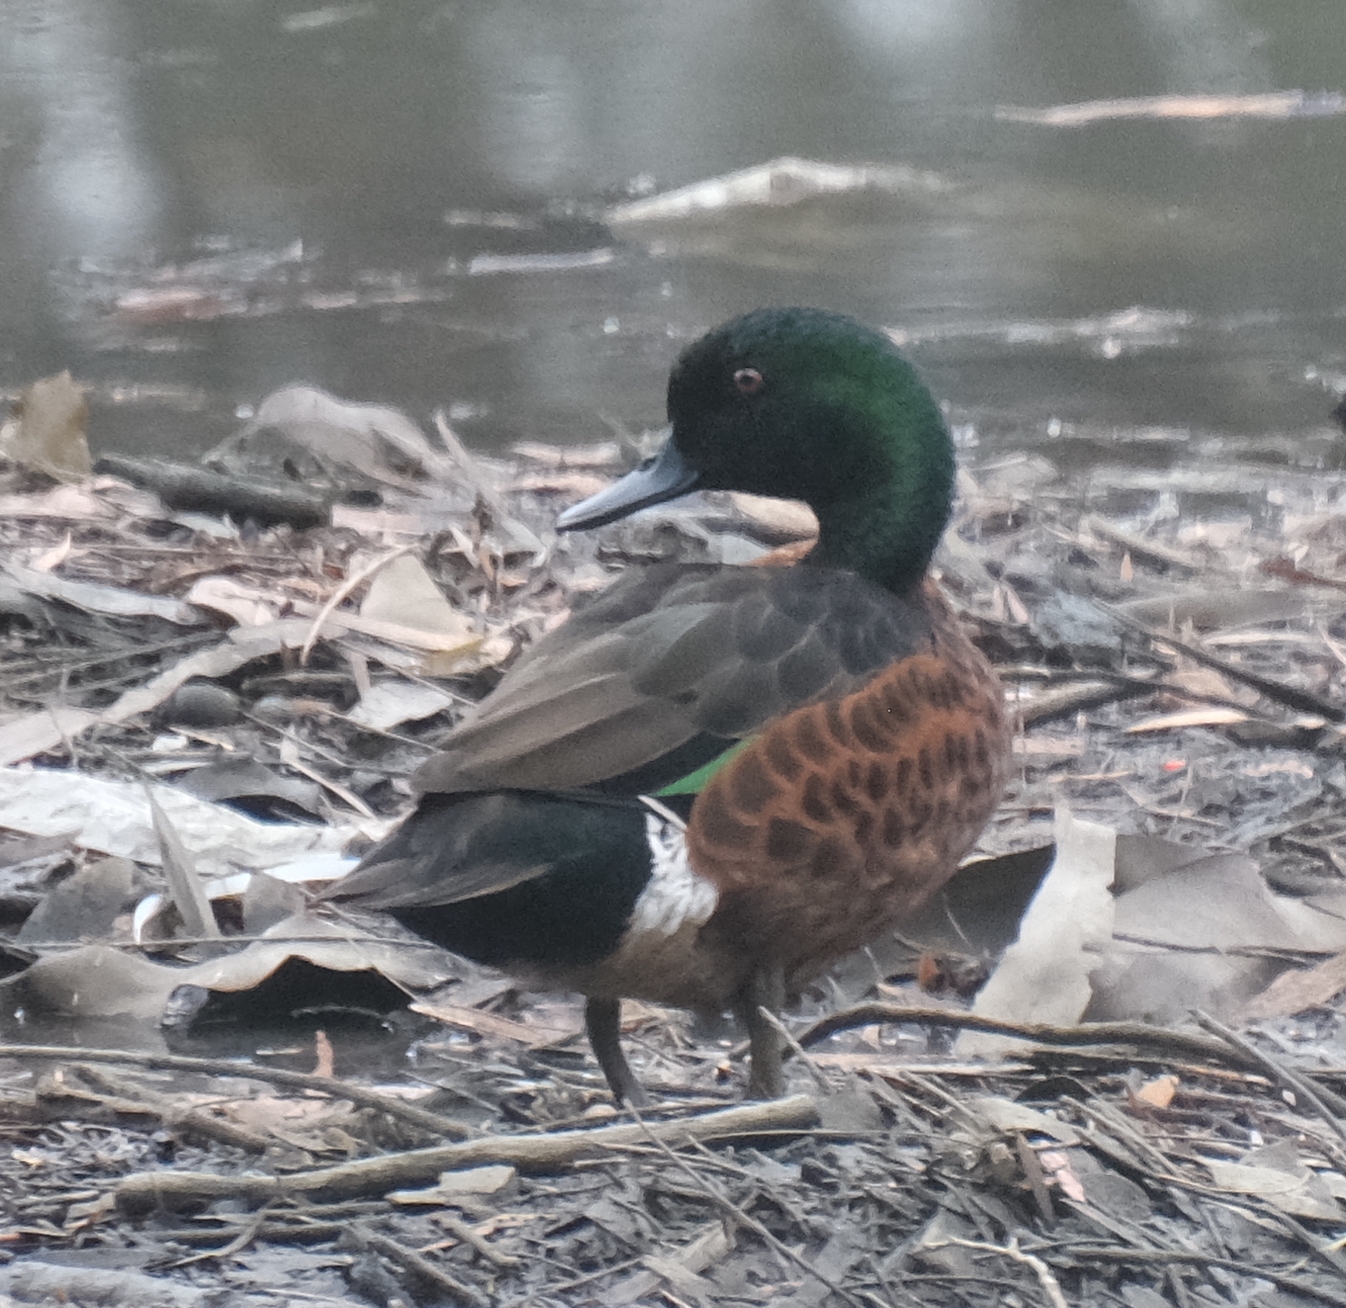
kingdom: Animalia
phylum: Chordata
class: Aves
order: Anseriformes
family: Anatidae
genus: Anas
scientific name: Anas castanea
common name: Chestnut teal
